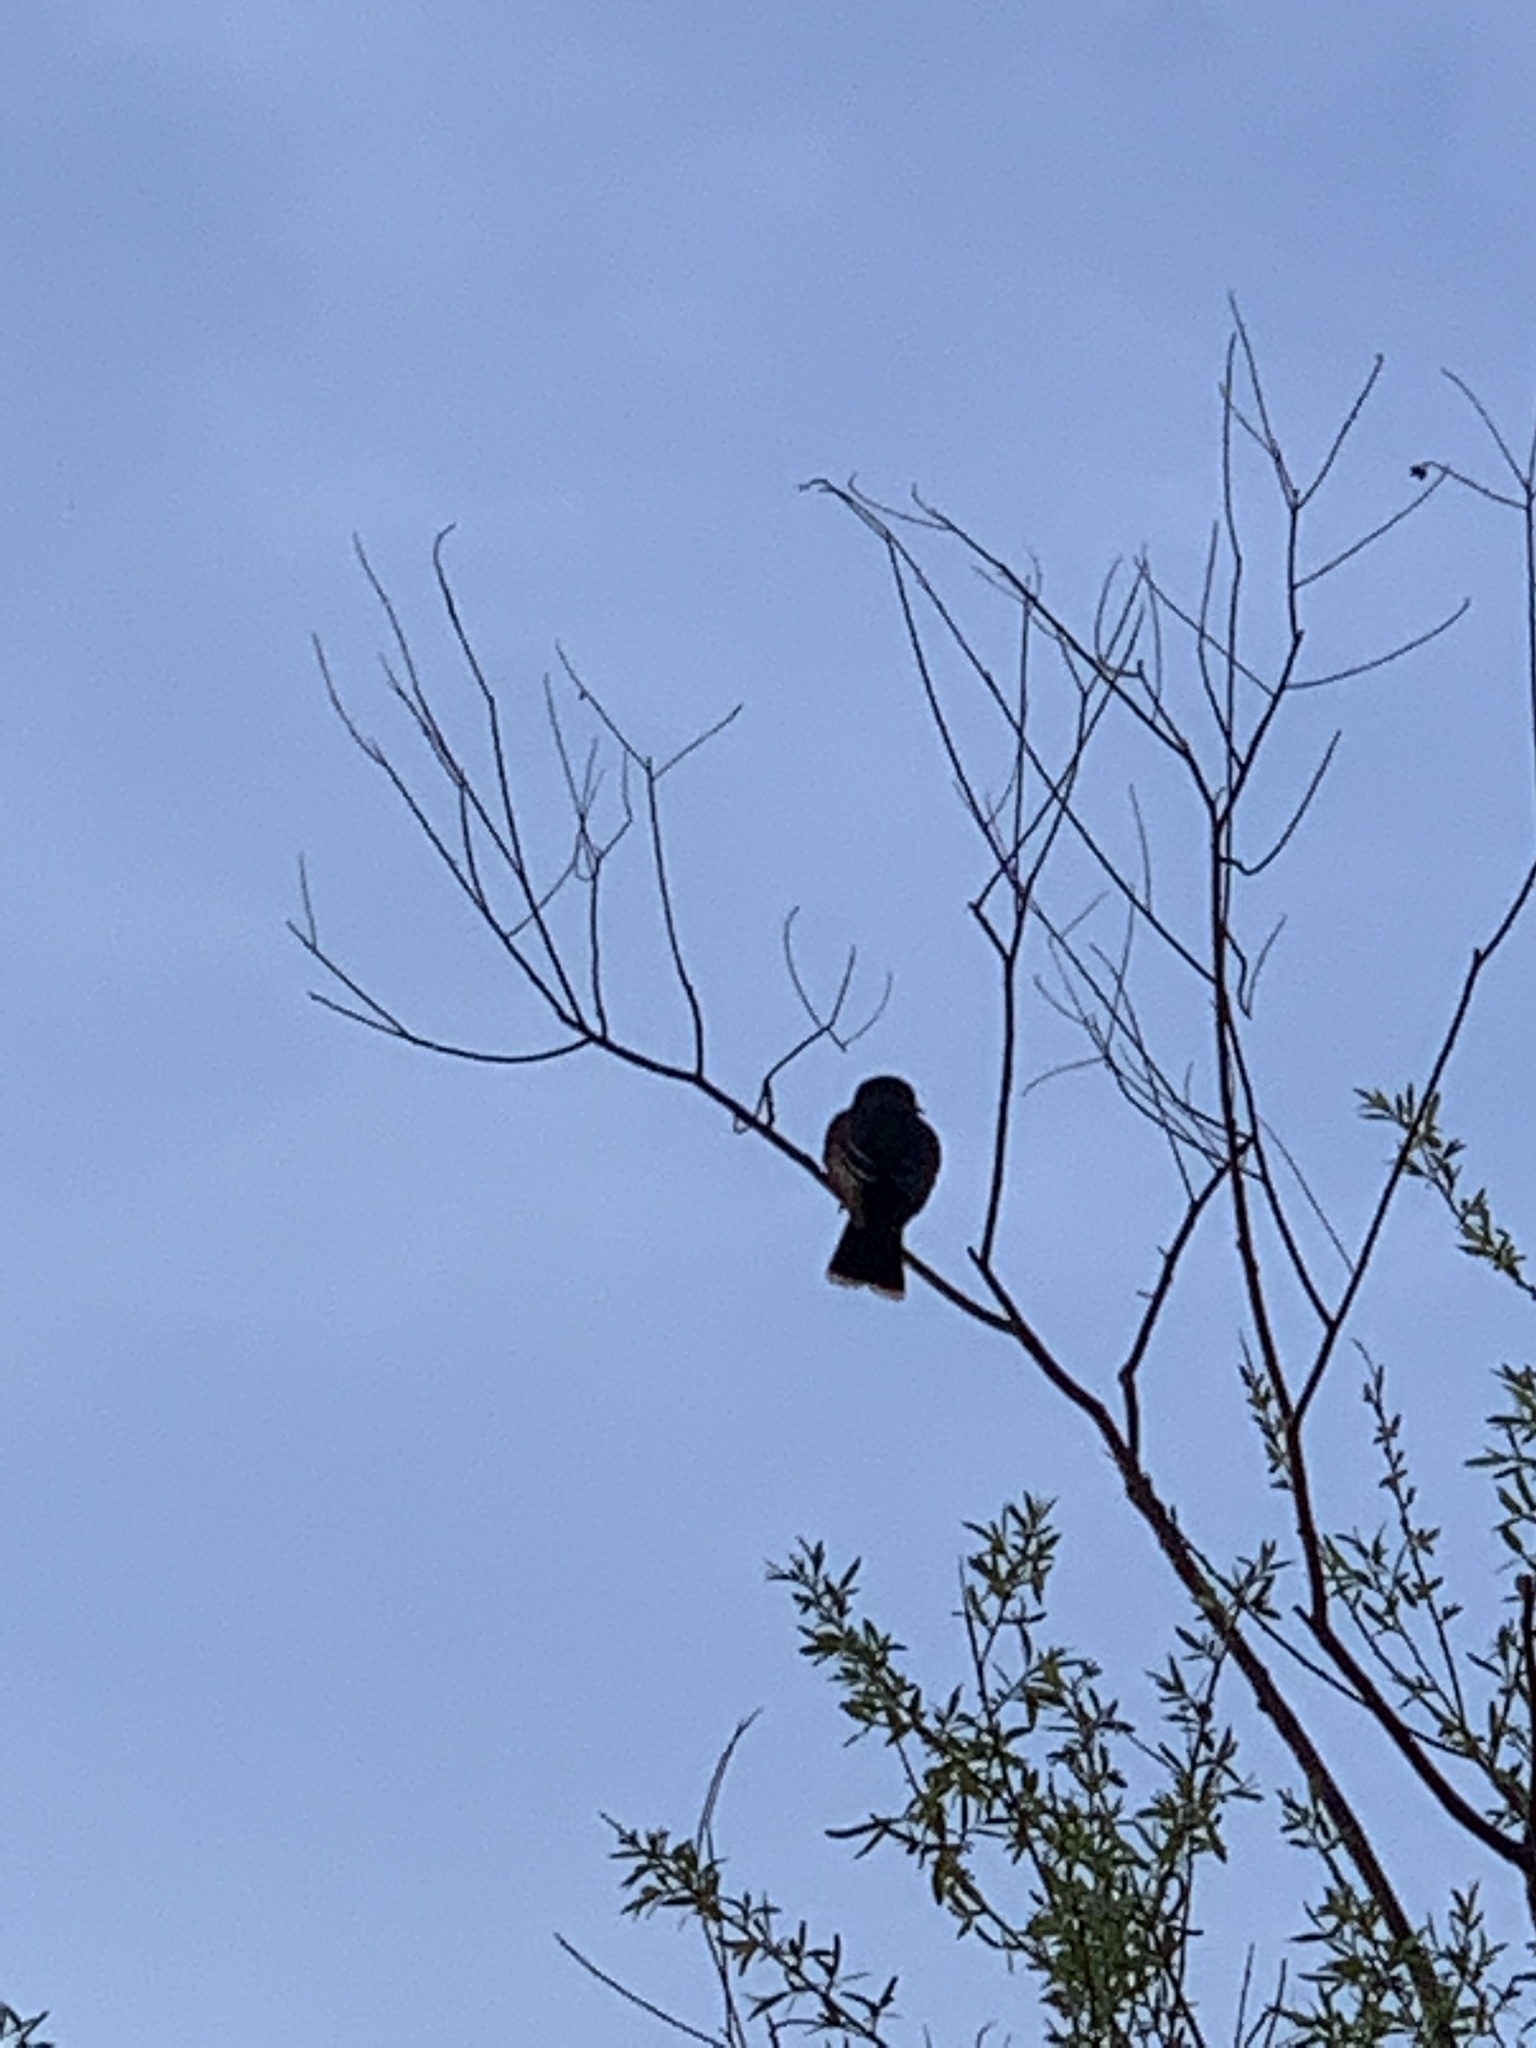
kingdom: Animalia
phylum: Chordata
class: Aves
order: Passeriformes
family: Tyrannidae
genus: Tyrannus
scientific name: Tyrannus tyrannus
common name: Eastern kingbird
